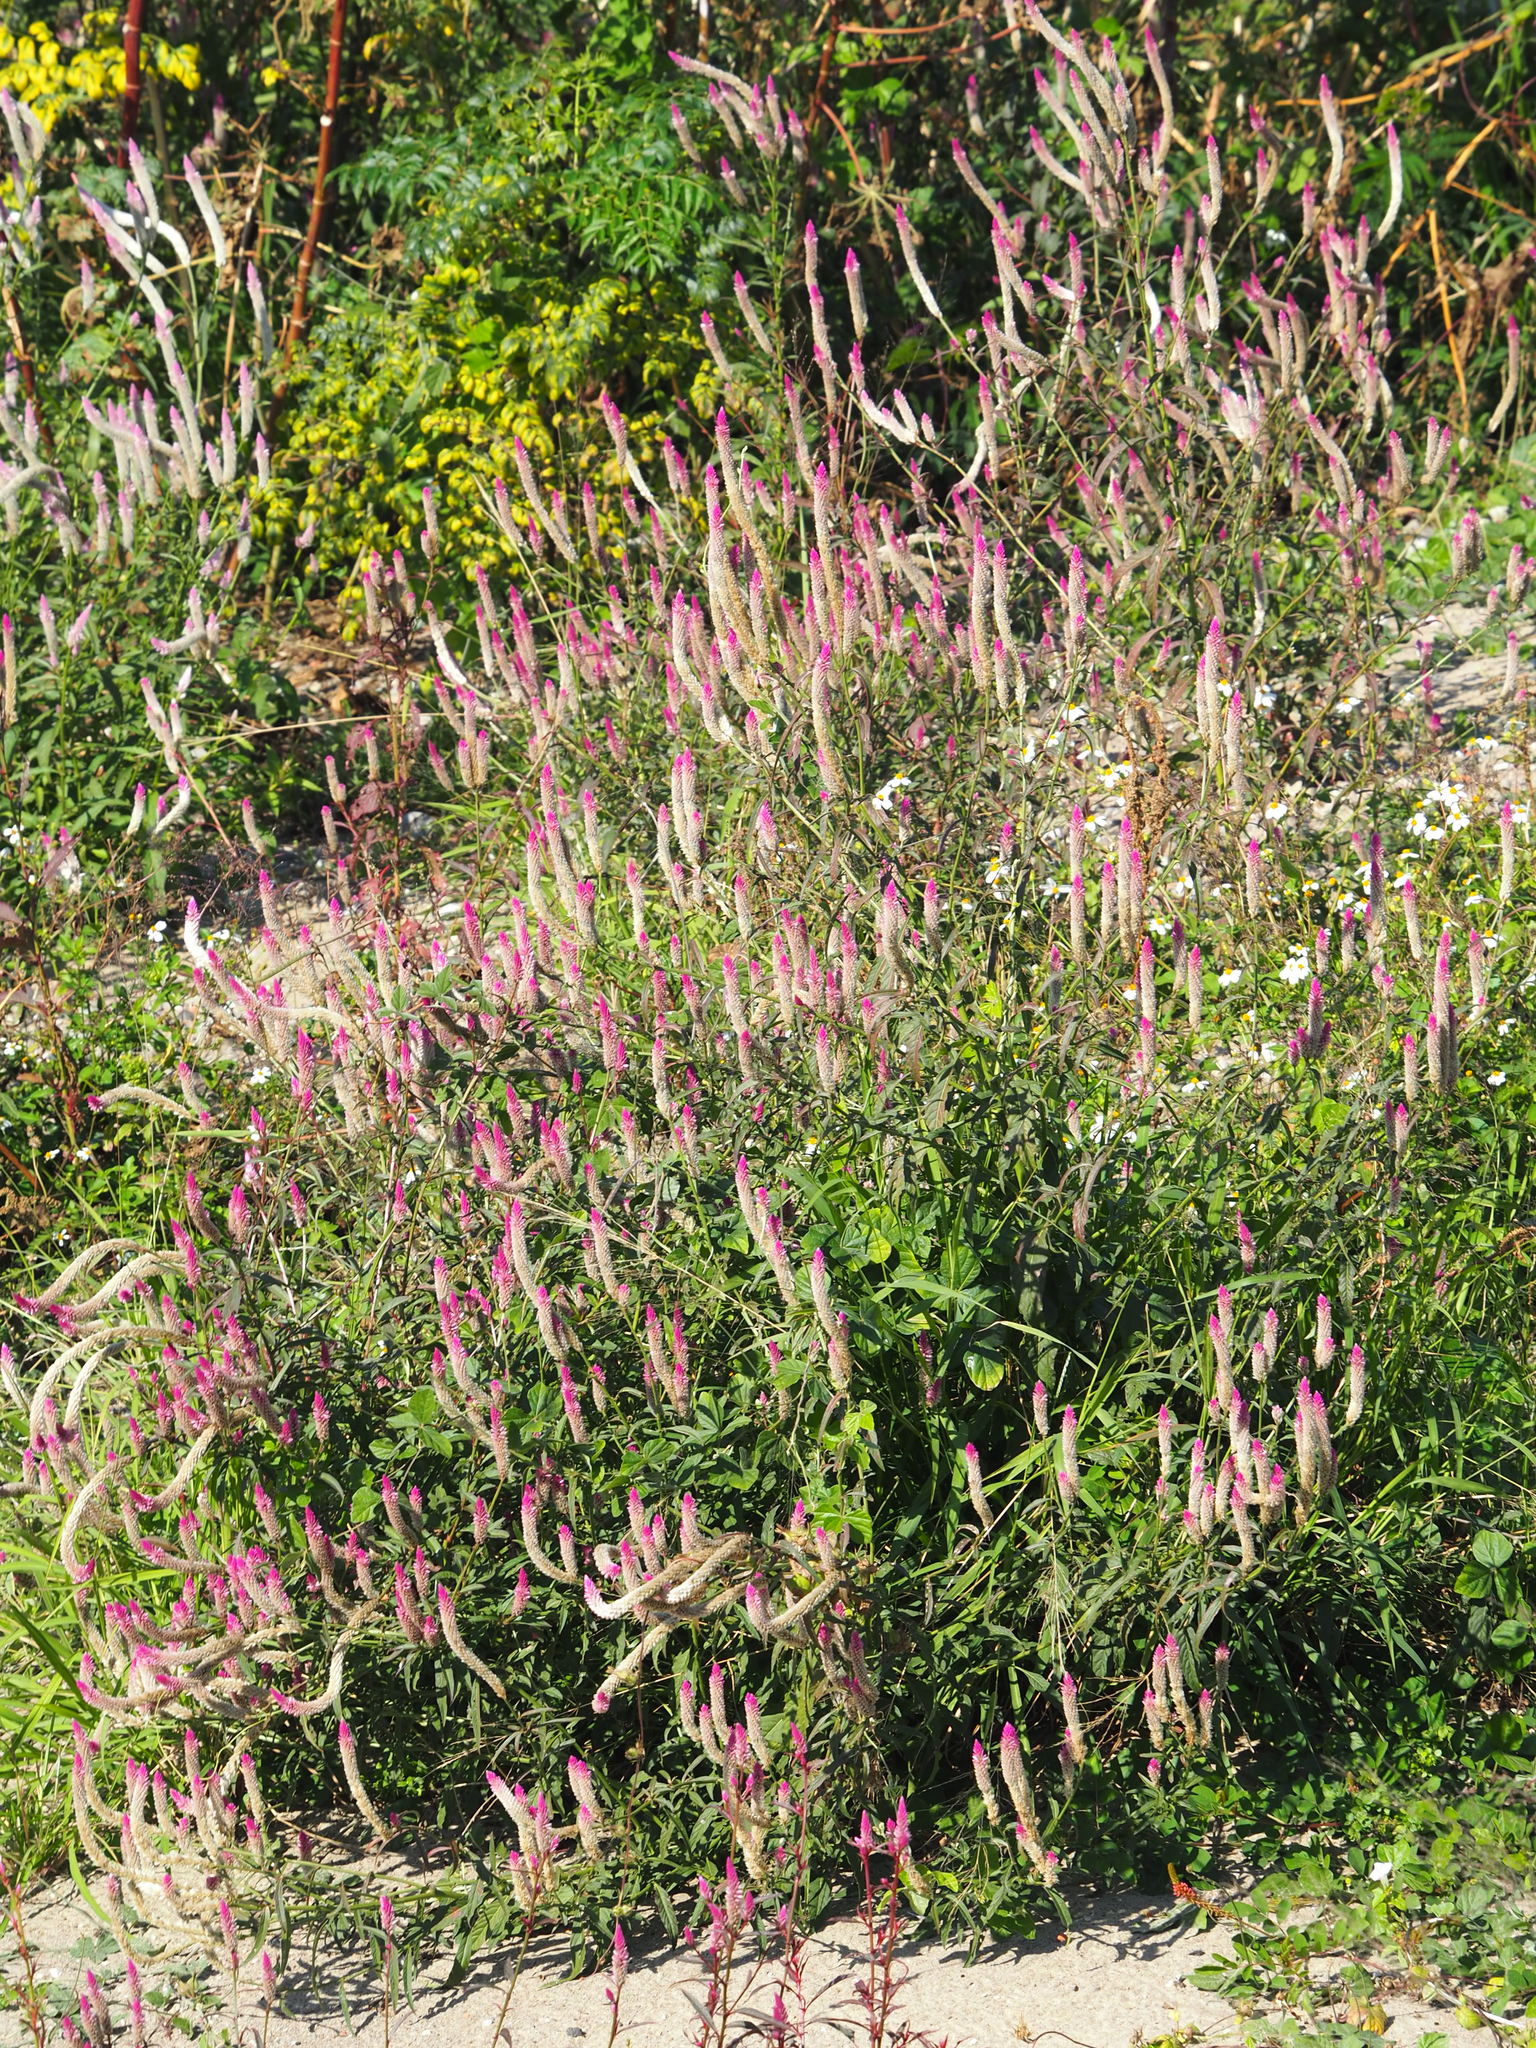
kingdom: Plantae
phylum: Tracheophyta
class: Magnoliopsida
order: Caryophyllales
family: Amaranthaceae
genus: Celosia
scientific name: Celosia argentea
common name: Feather cockscomb
